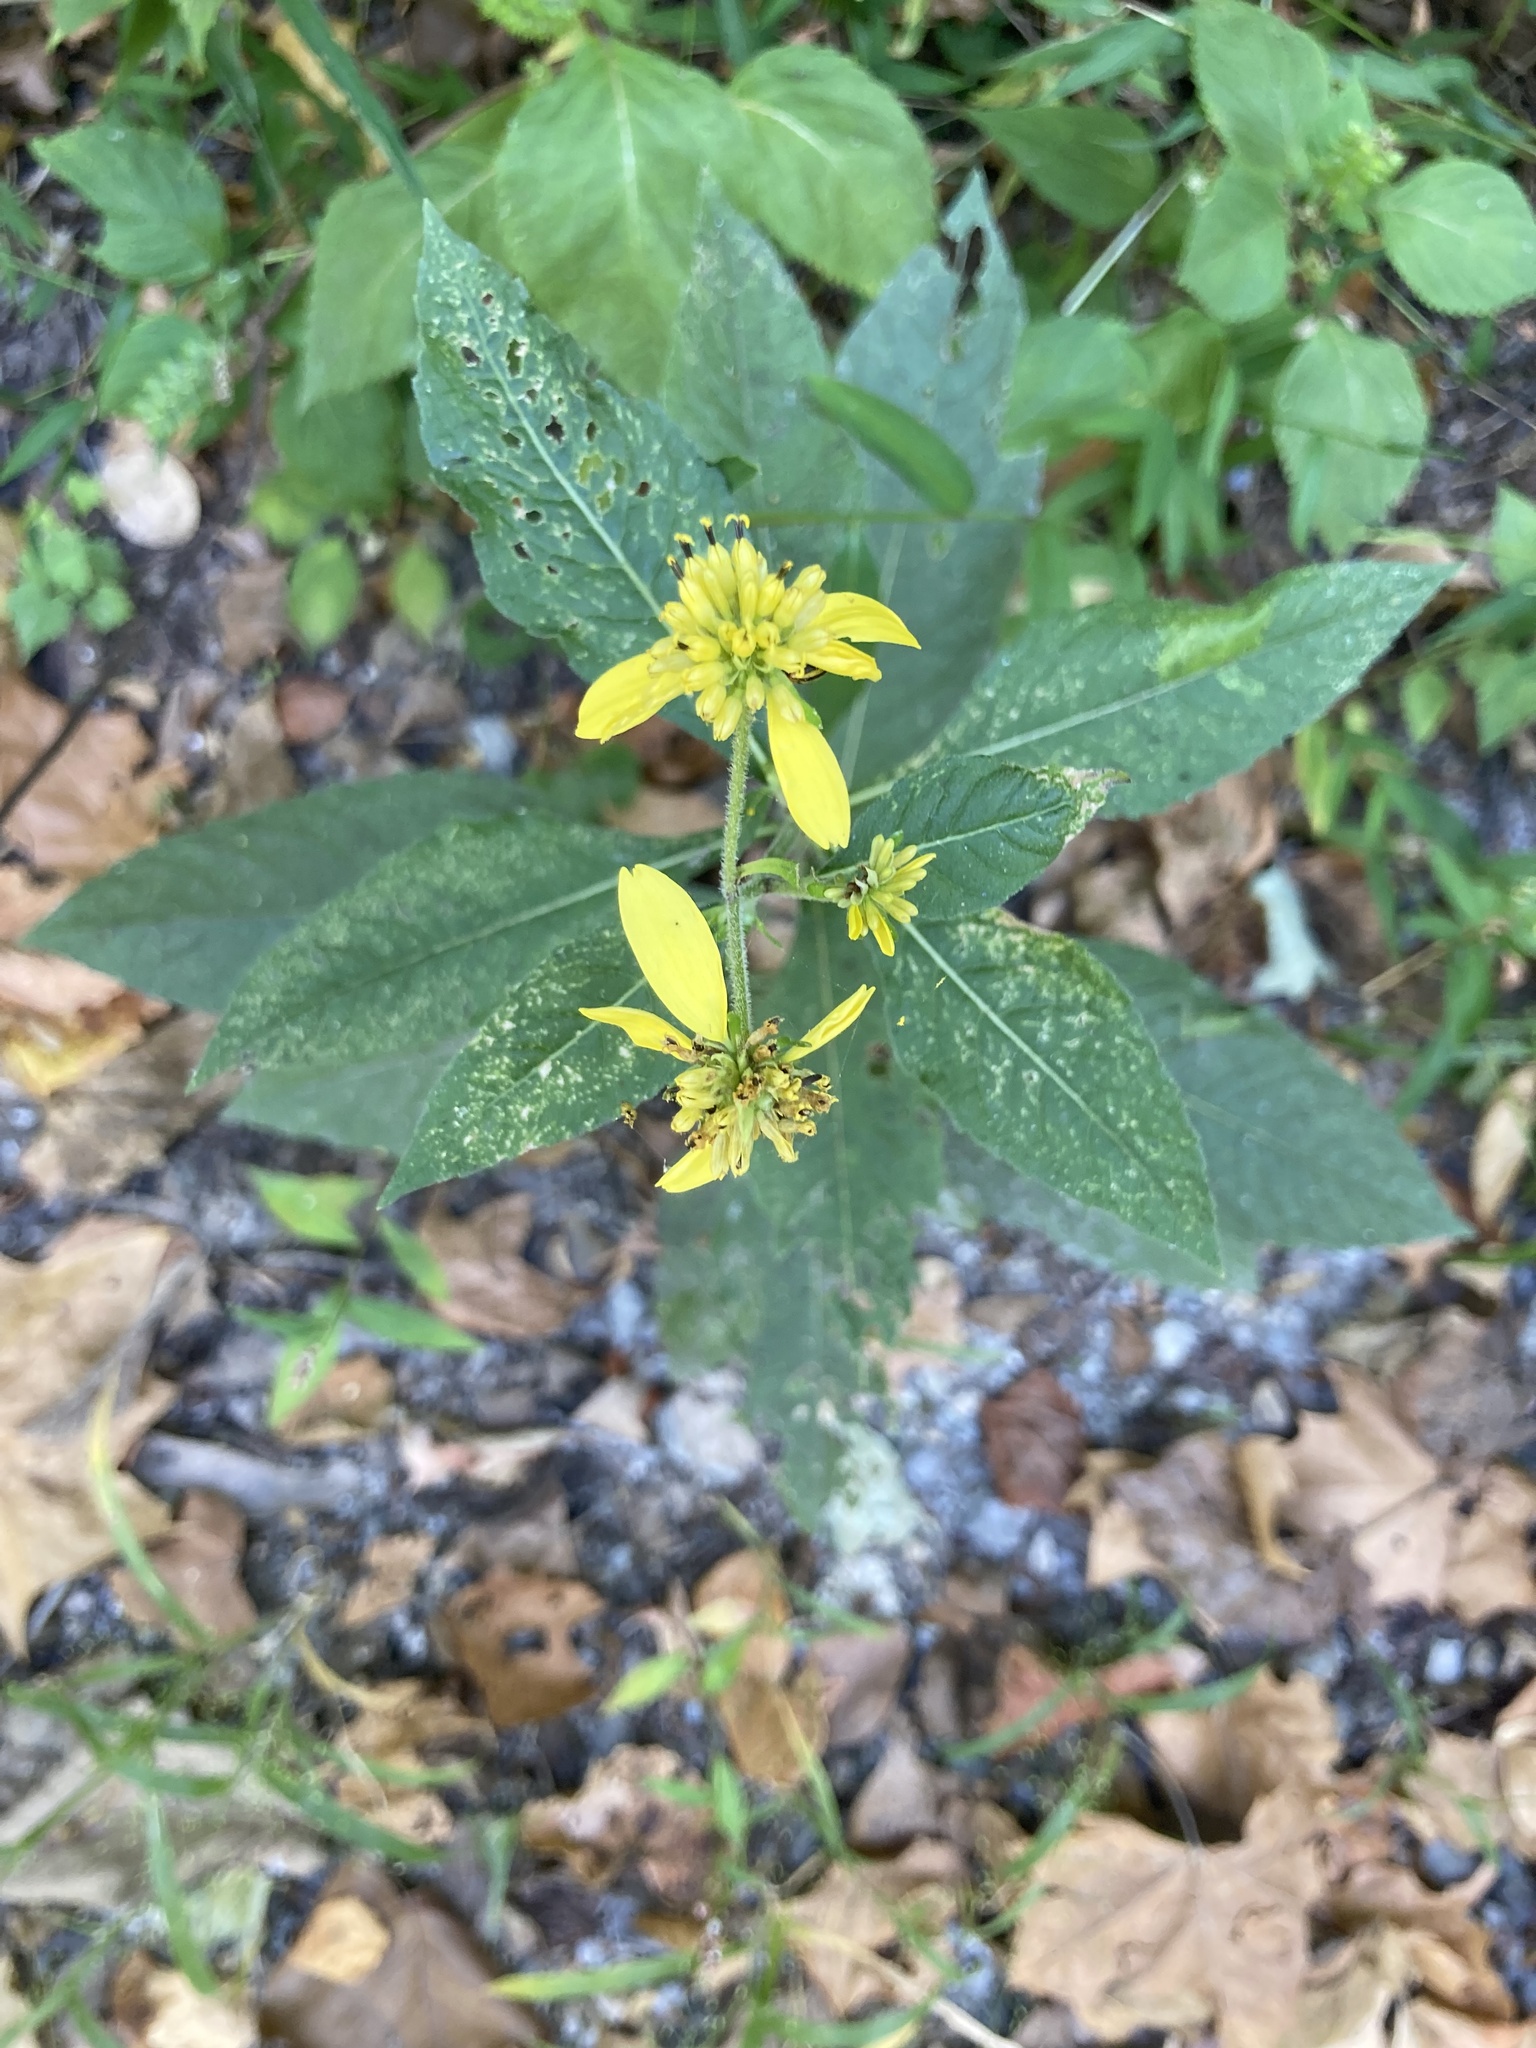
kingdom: Plantae
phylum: Tracheophyta
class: Magnoliopsida
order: Asterales
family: Asteraceae
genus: Verbesina
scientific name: Verbesina alternifolia
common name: Wingstem
